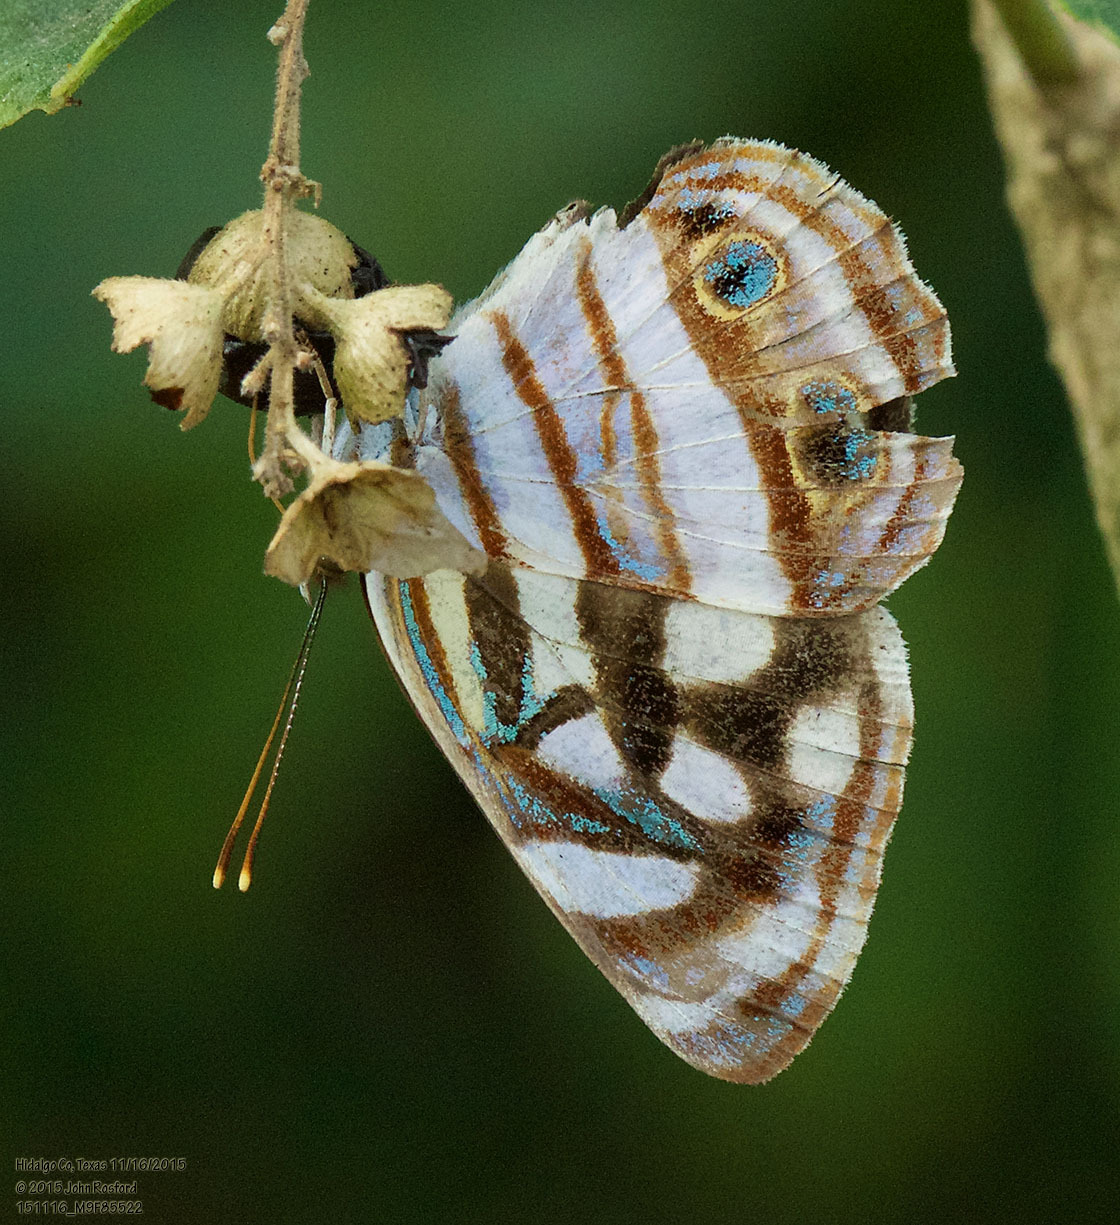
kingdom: Animalia
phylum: Arthropoda
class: Insecta
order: Lepidoptera
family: Nymphalidae
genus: Dynamine
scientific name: Dynamine mylitta
